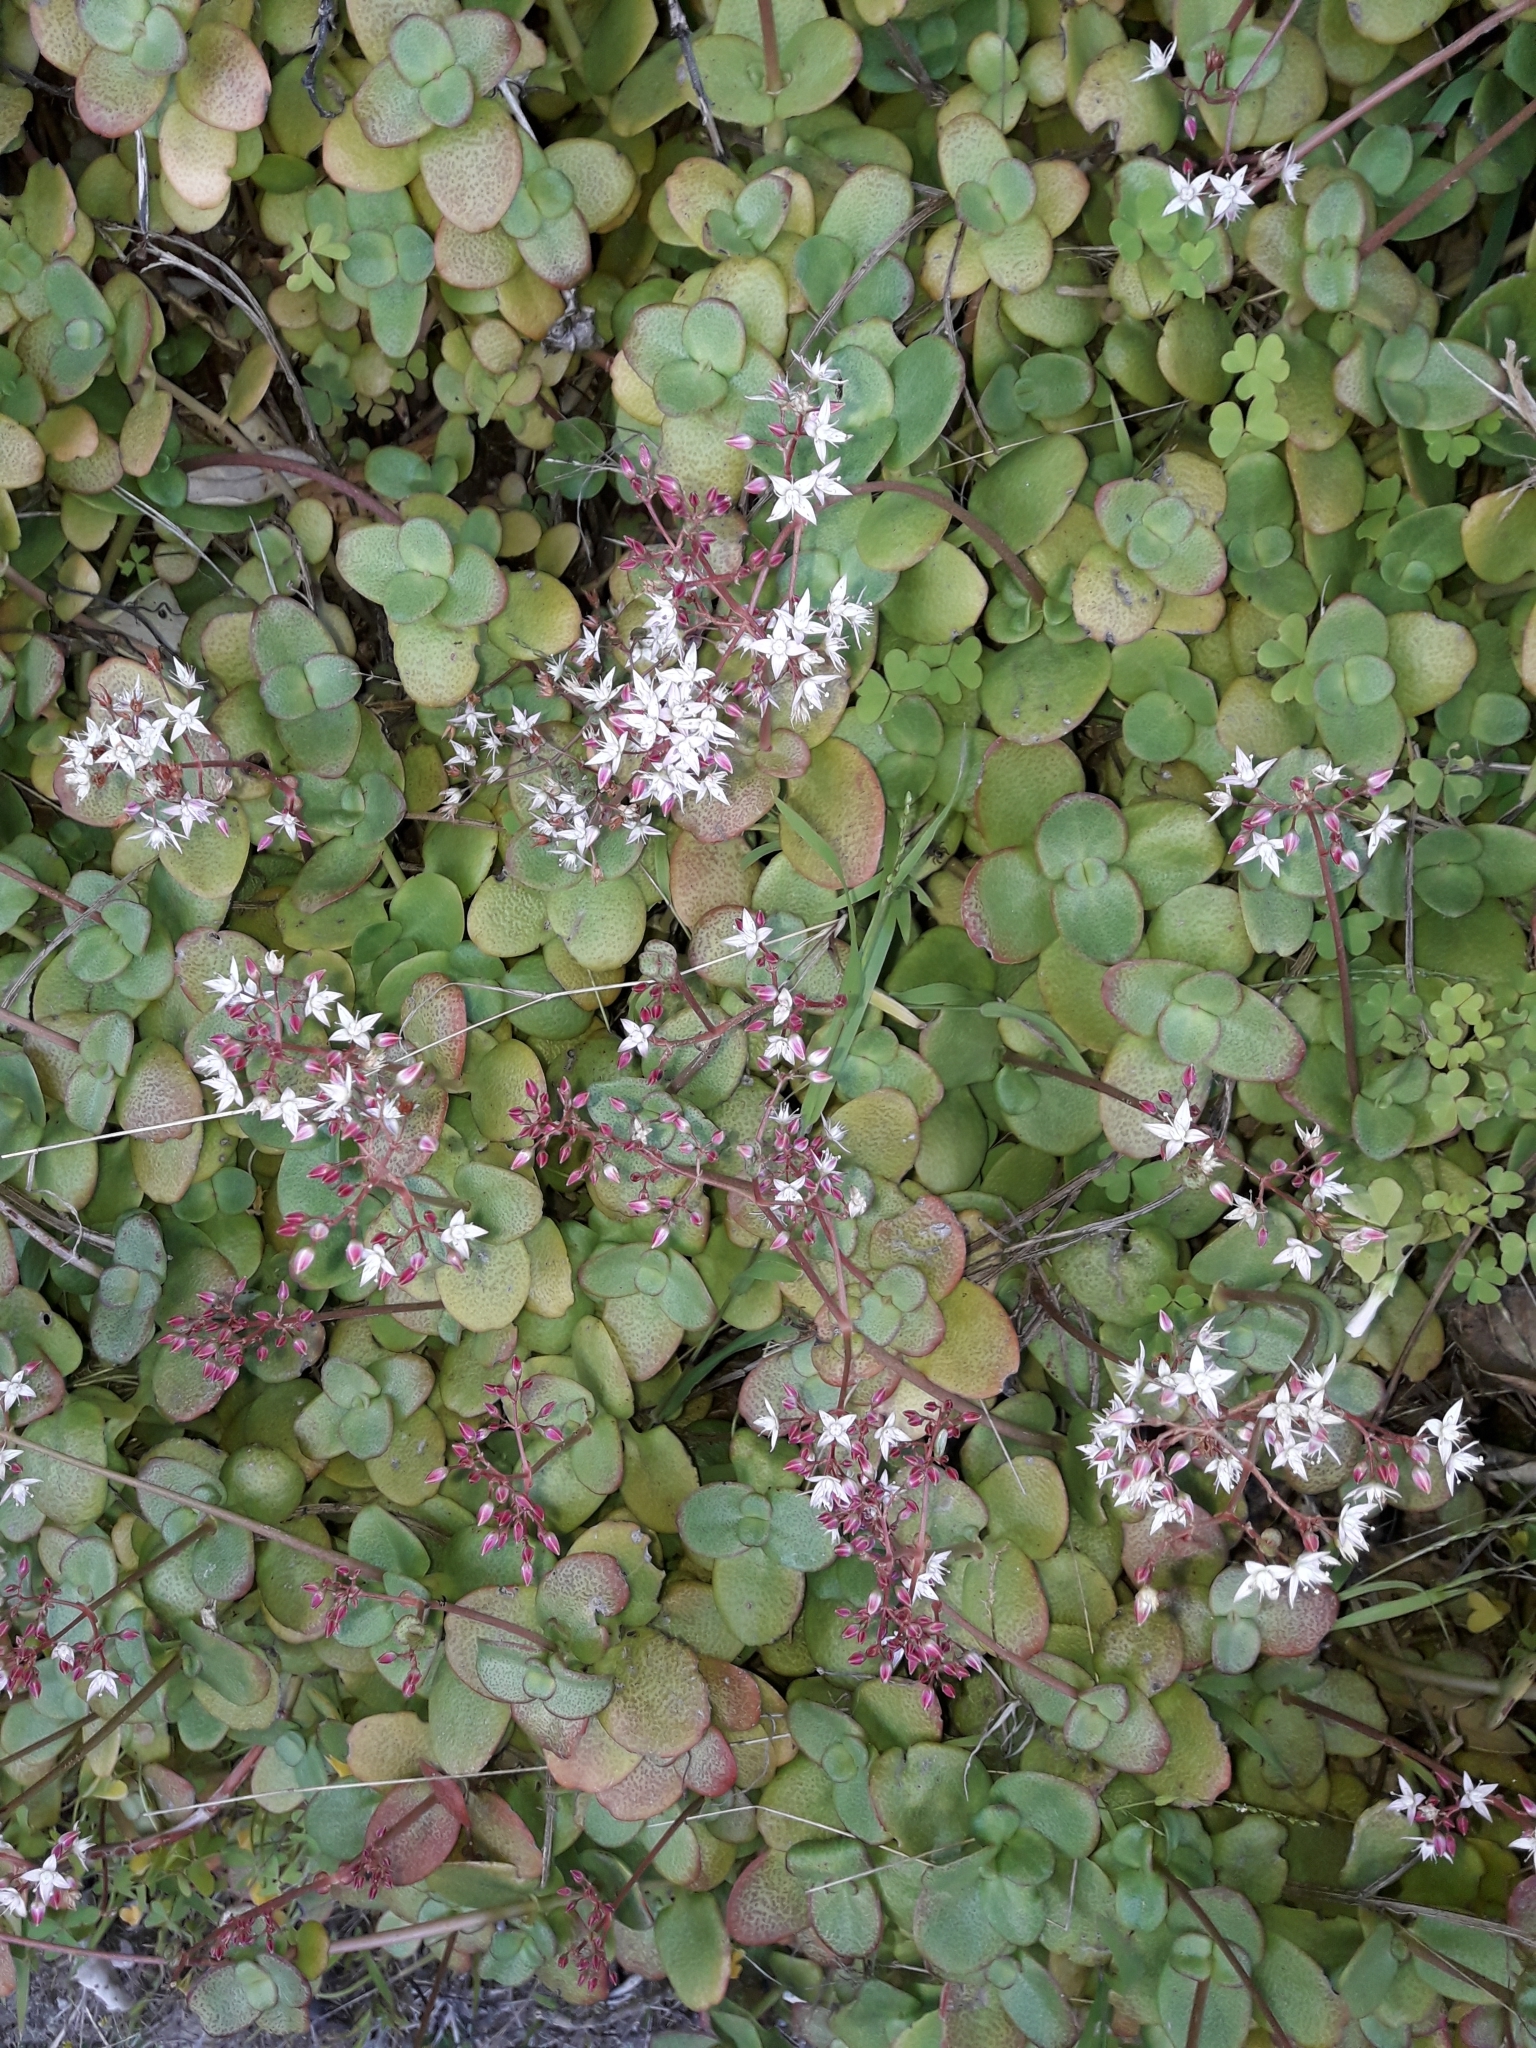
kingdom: Plantae
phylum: Tracheophyta
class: Magnoliopsida
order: Saxifragales
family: Crassulaceae
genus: Crassula
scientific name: Crassula multicava
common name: Cape province pygmyweed
